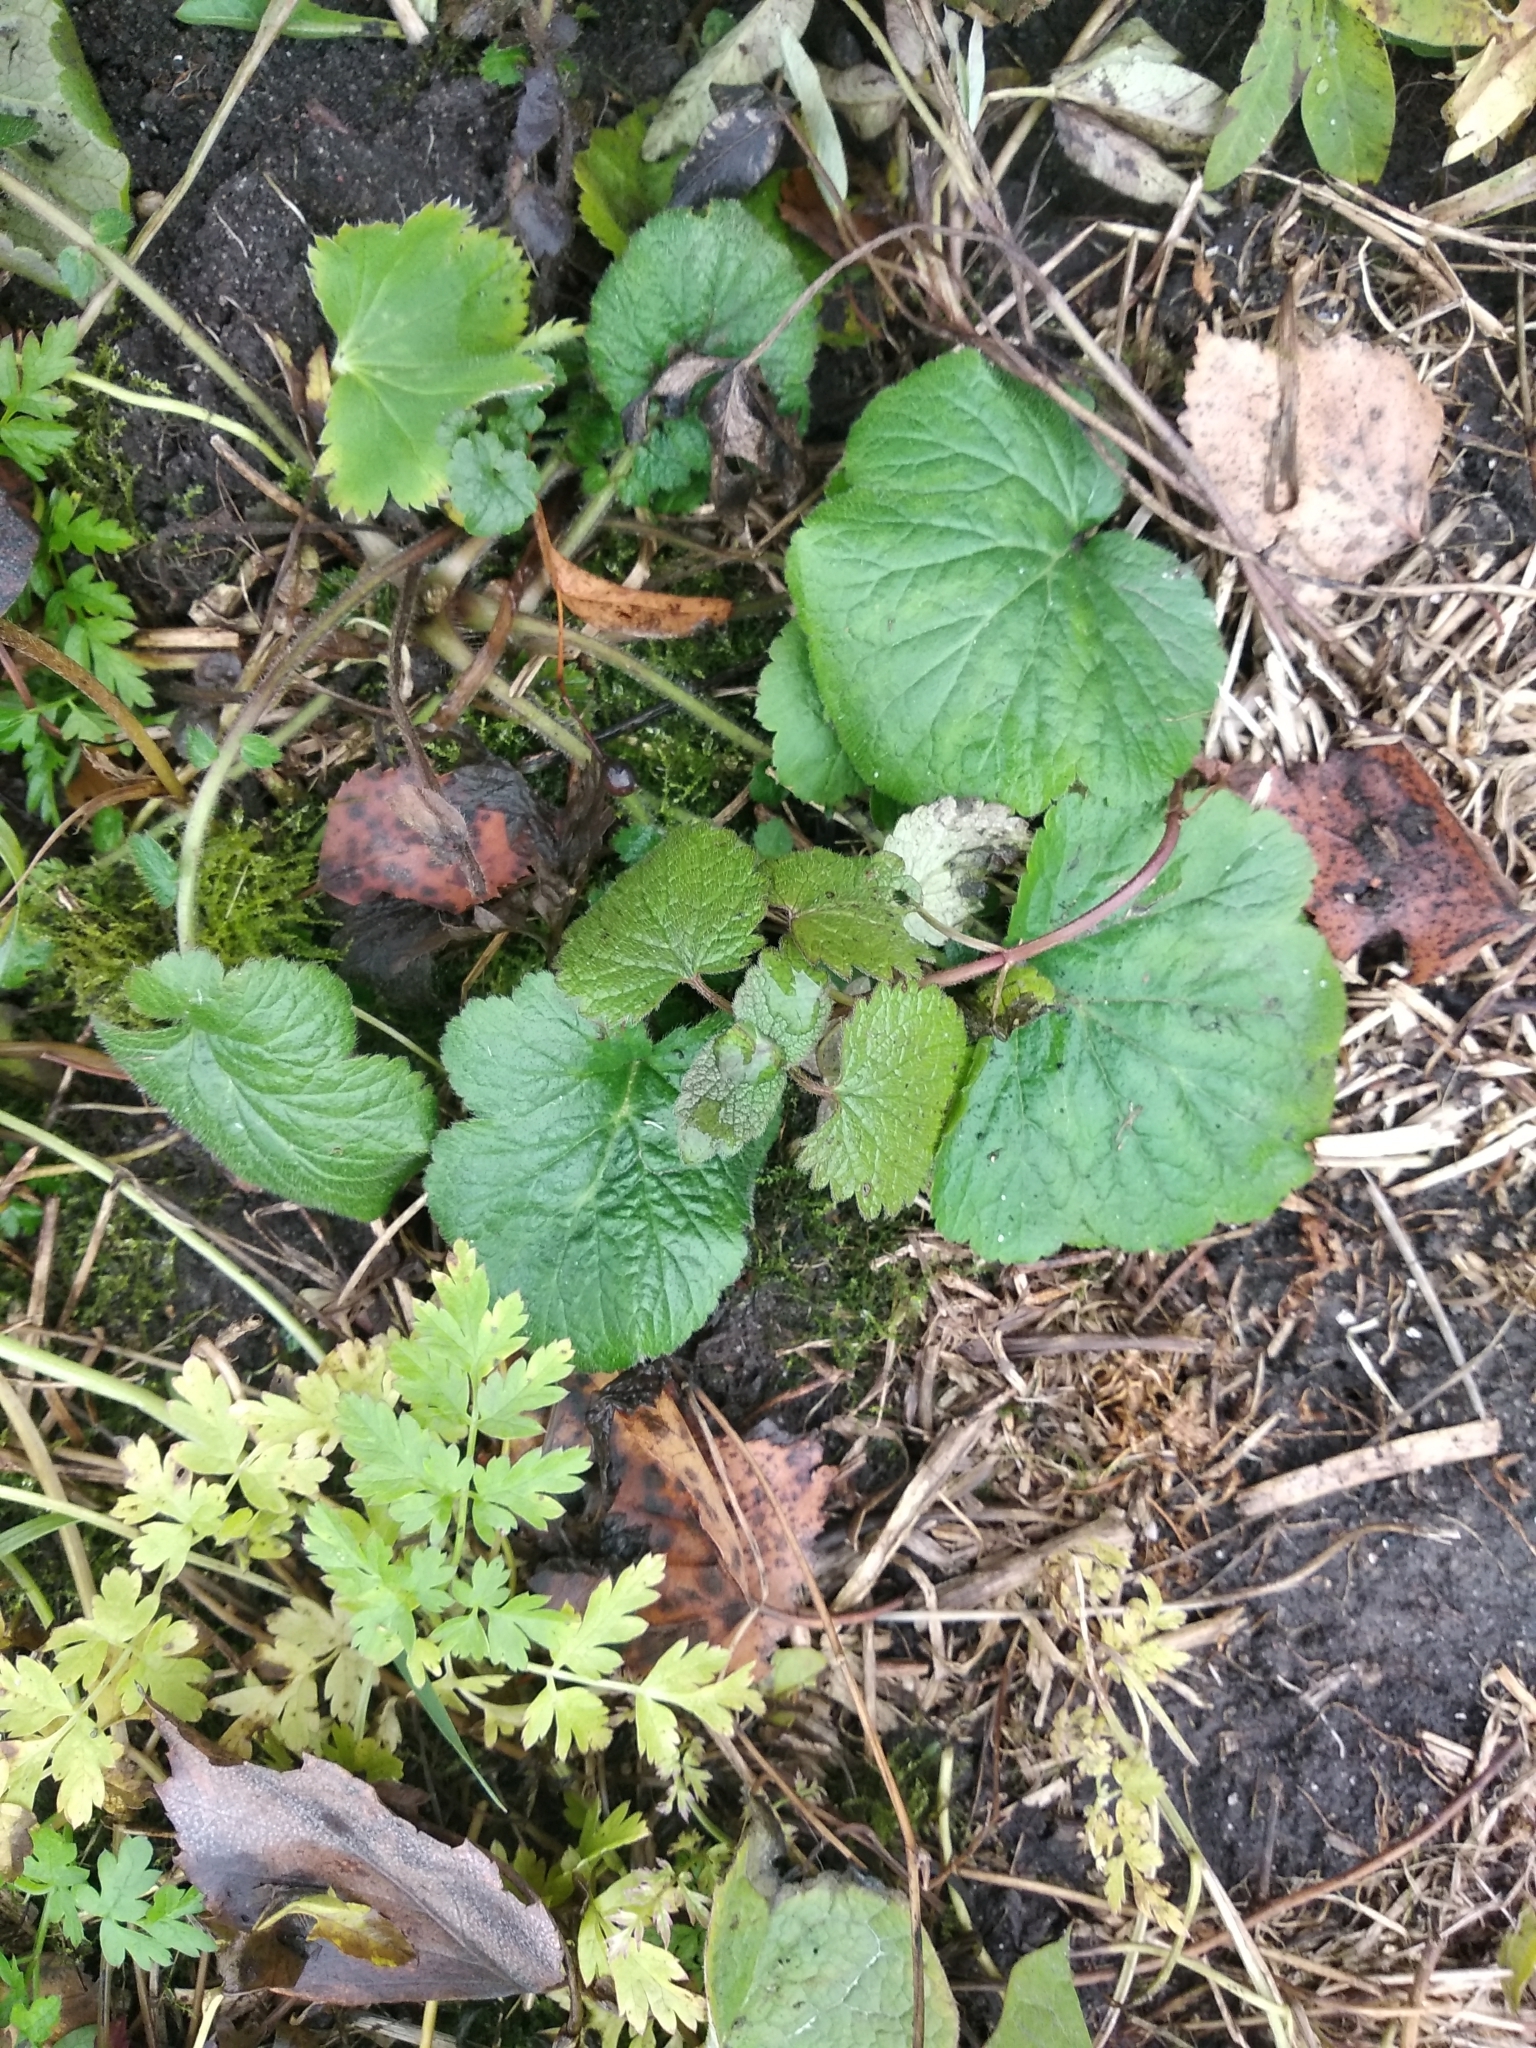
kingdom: Plantae
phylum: Tracheophyta
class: Magnoliopsida
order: Rosales
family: Rosaceae
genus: Geum
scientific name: Geum
